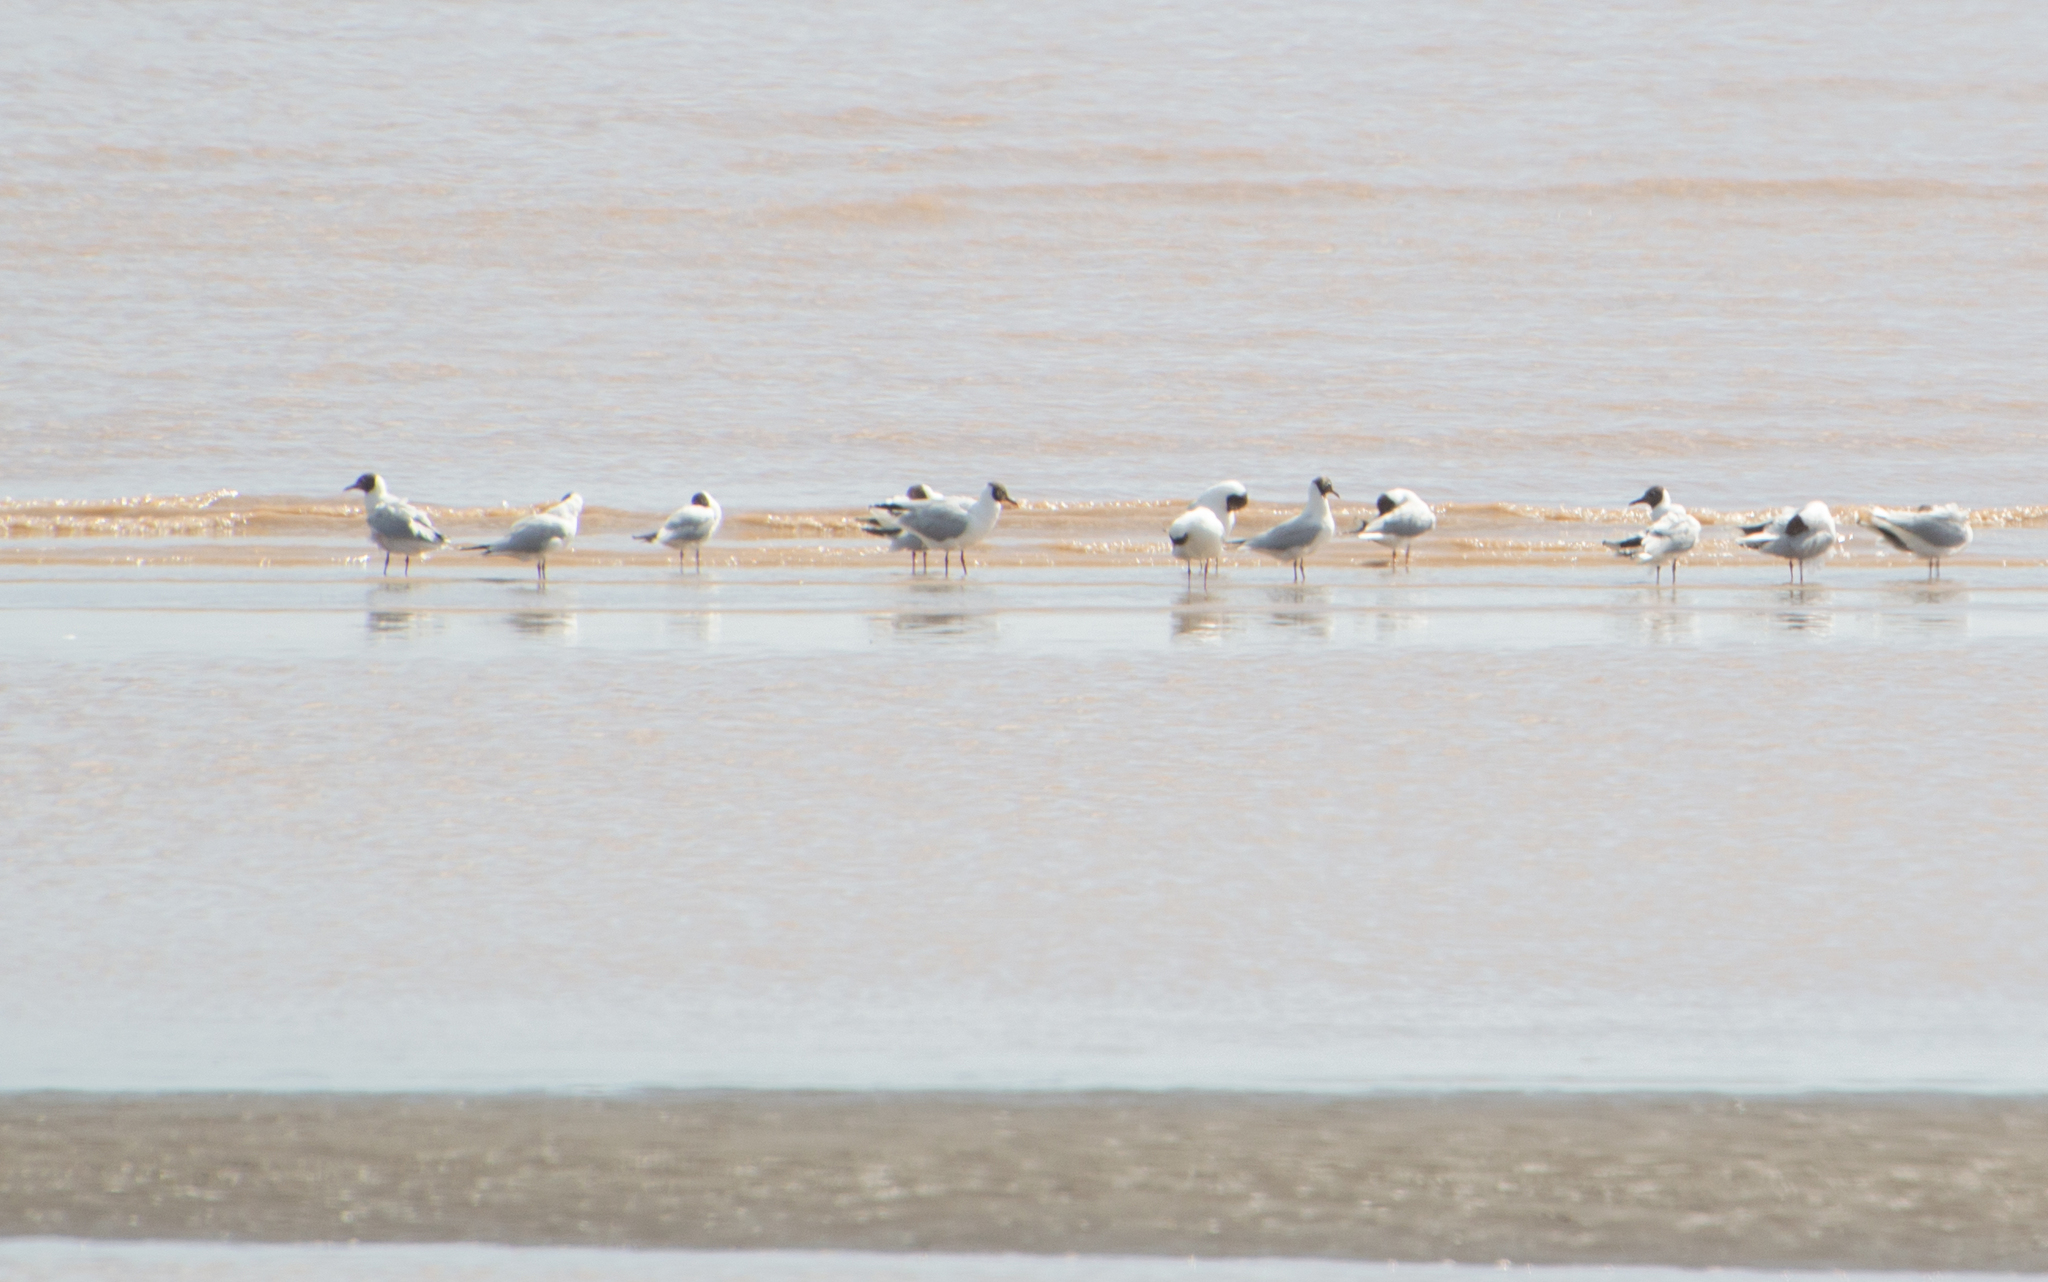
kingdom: Animalia
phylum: Chordata
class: Aves
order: Charadriiformes
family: Laridae
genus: Chroicocephalus
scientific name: Chroicocephalus maculipennis
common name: Brown-hooded gull
